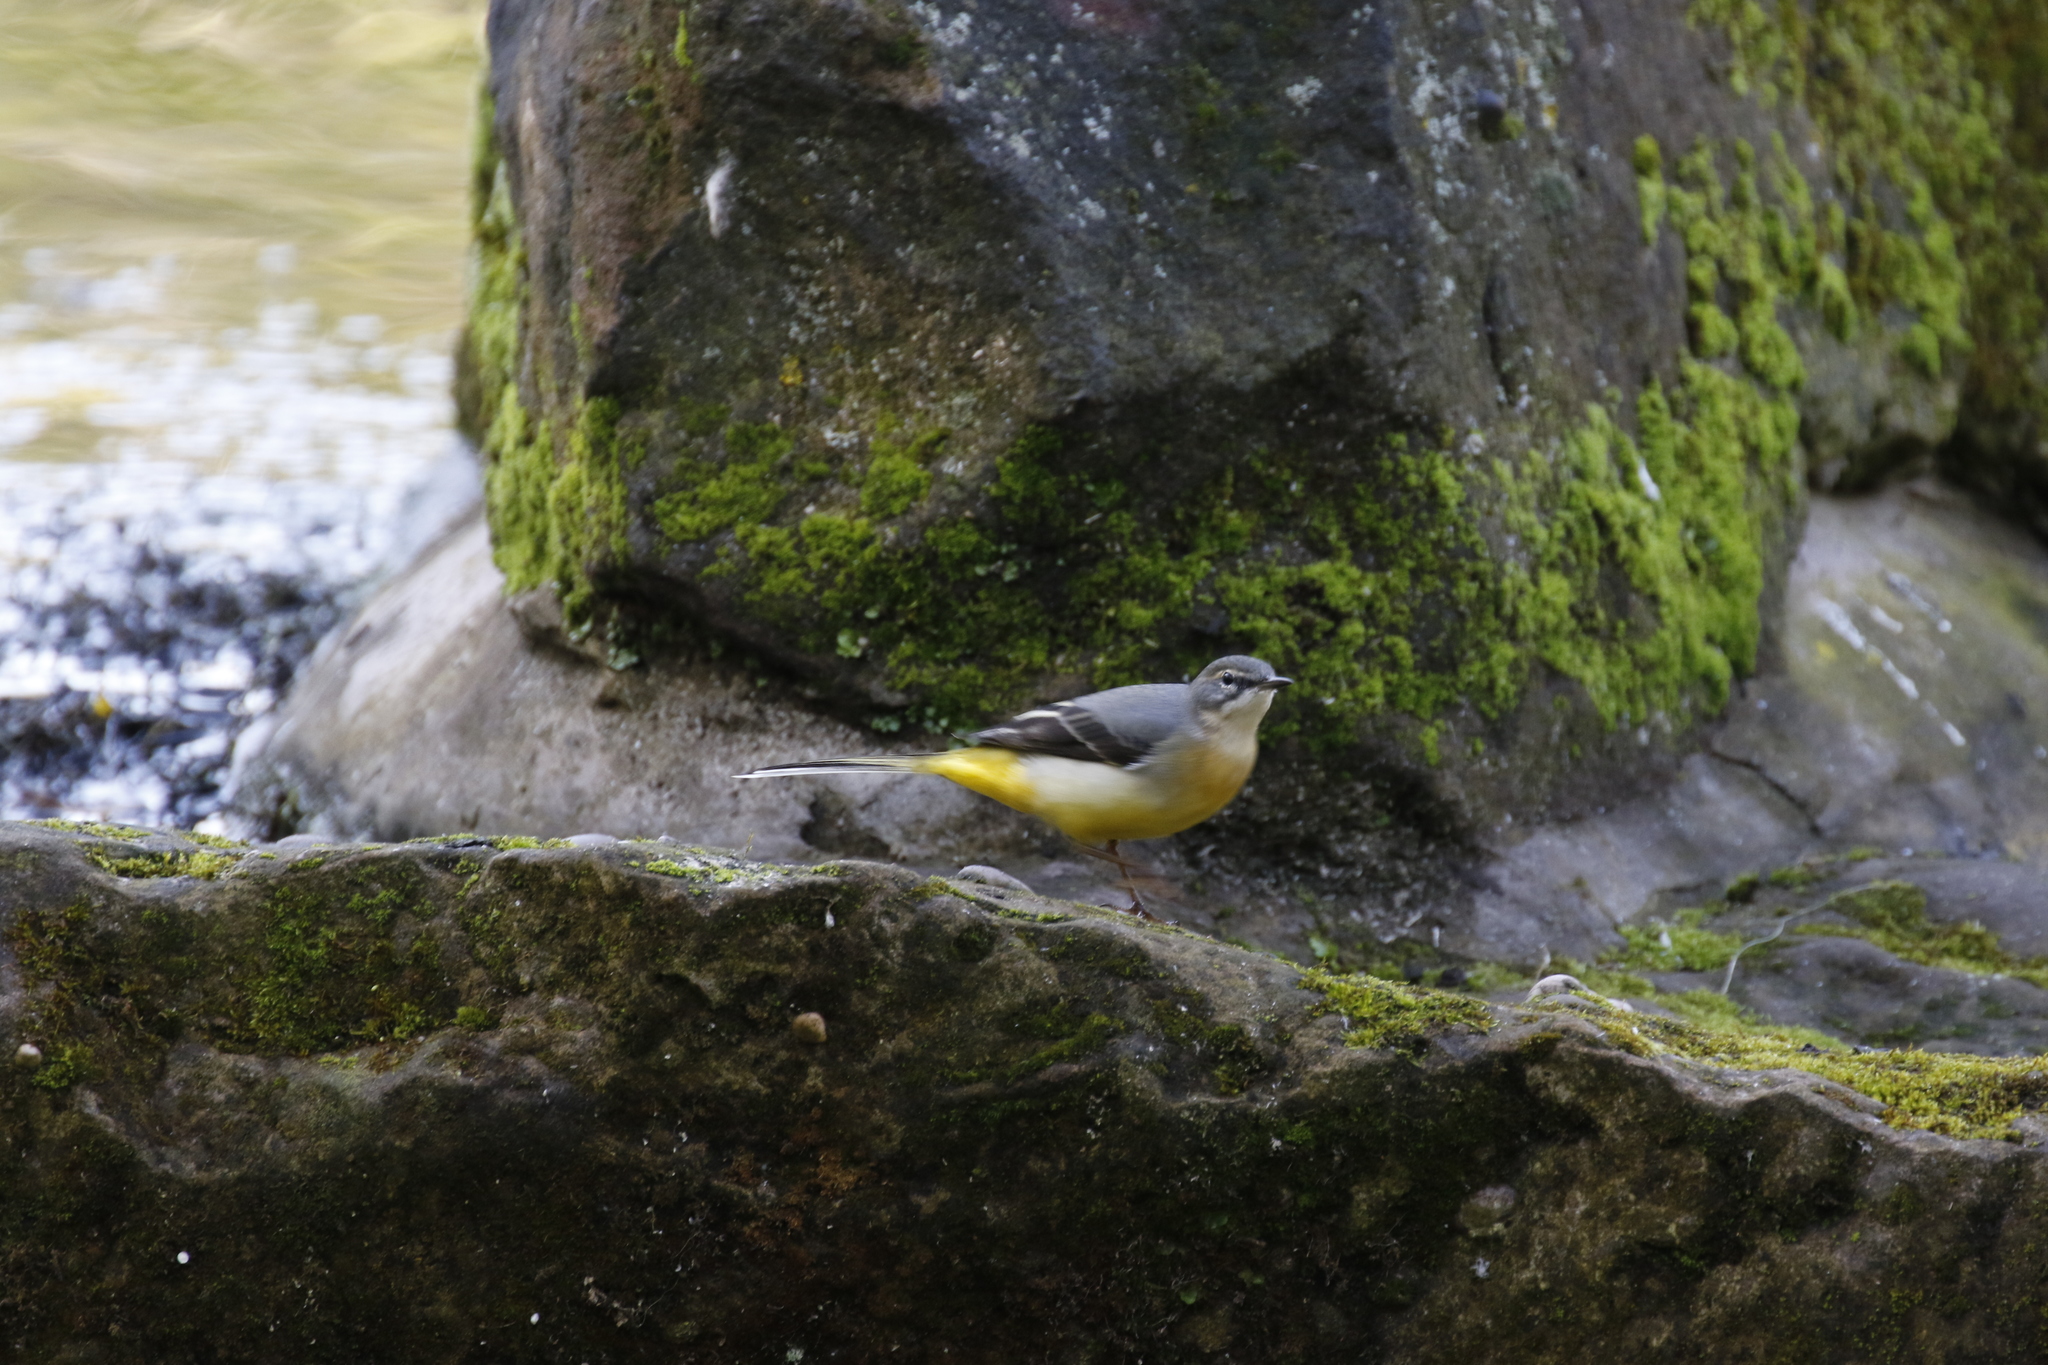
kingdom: Animalia
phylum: Chordata
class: Aves
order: Passeriformes
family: Motacillidae
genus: Motacilla
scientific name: Motacilla cinerea
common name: Grey wagtail
